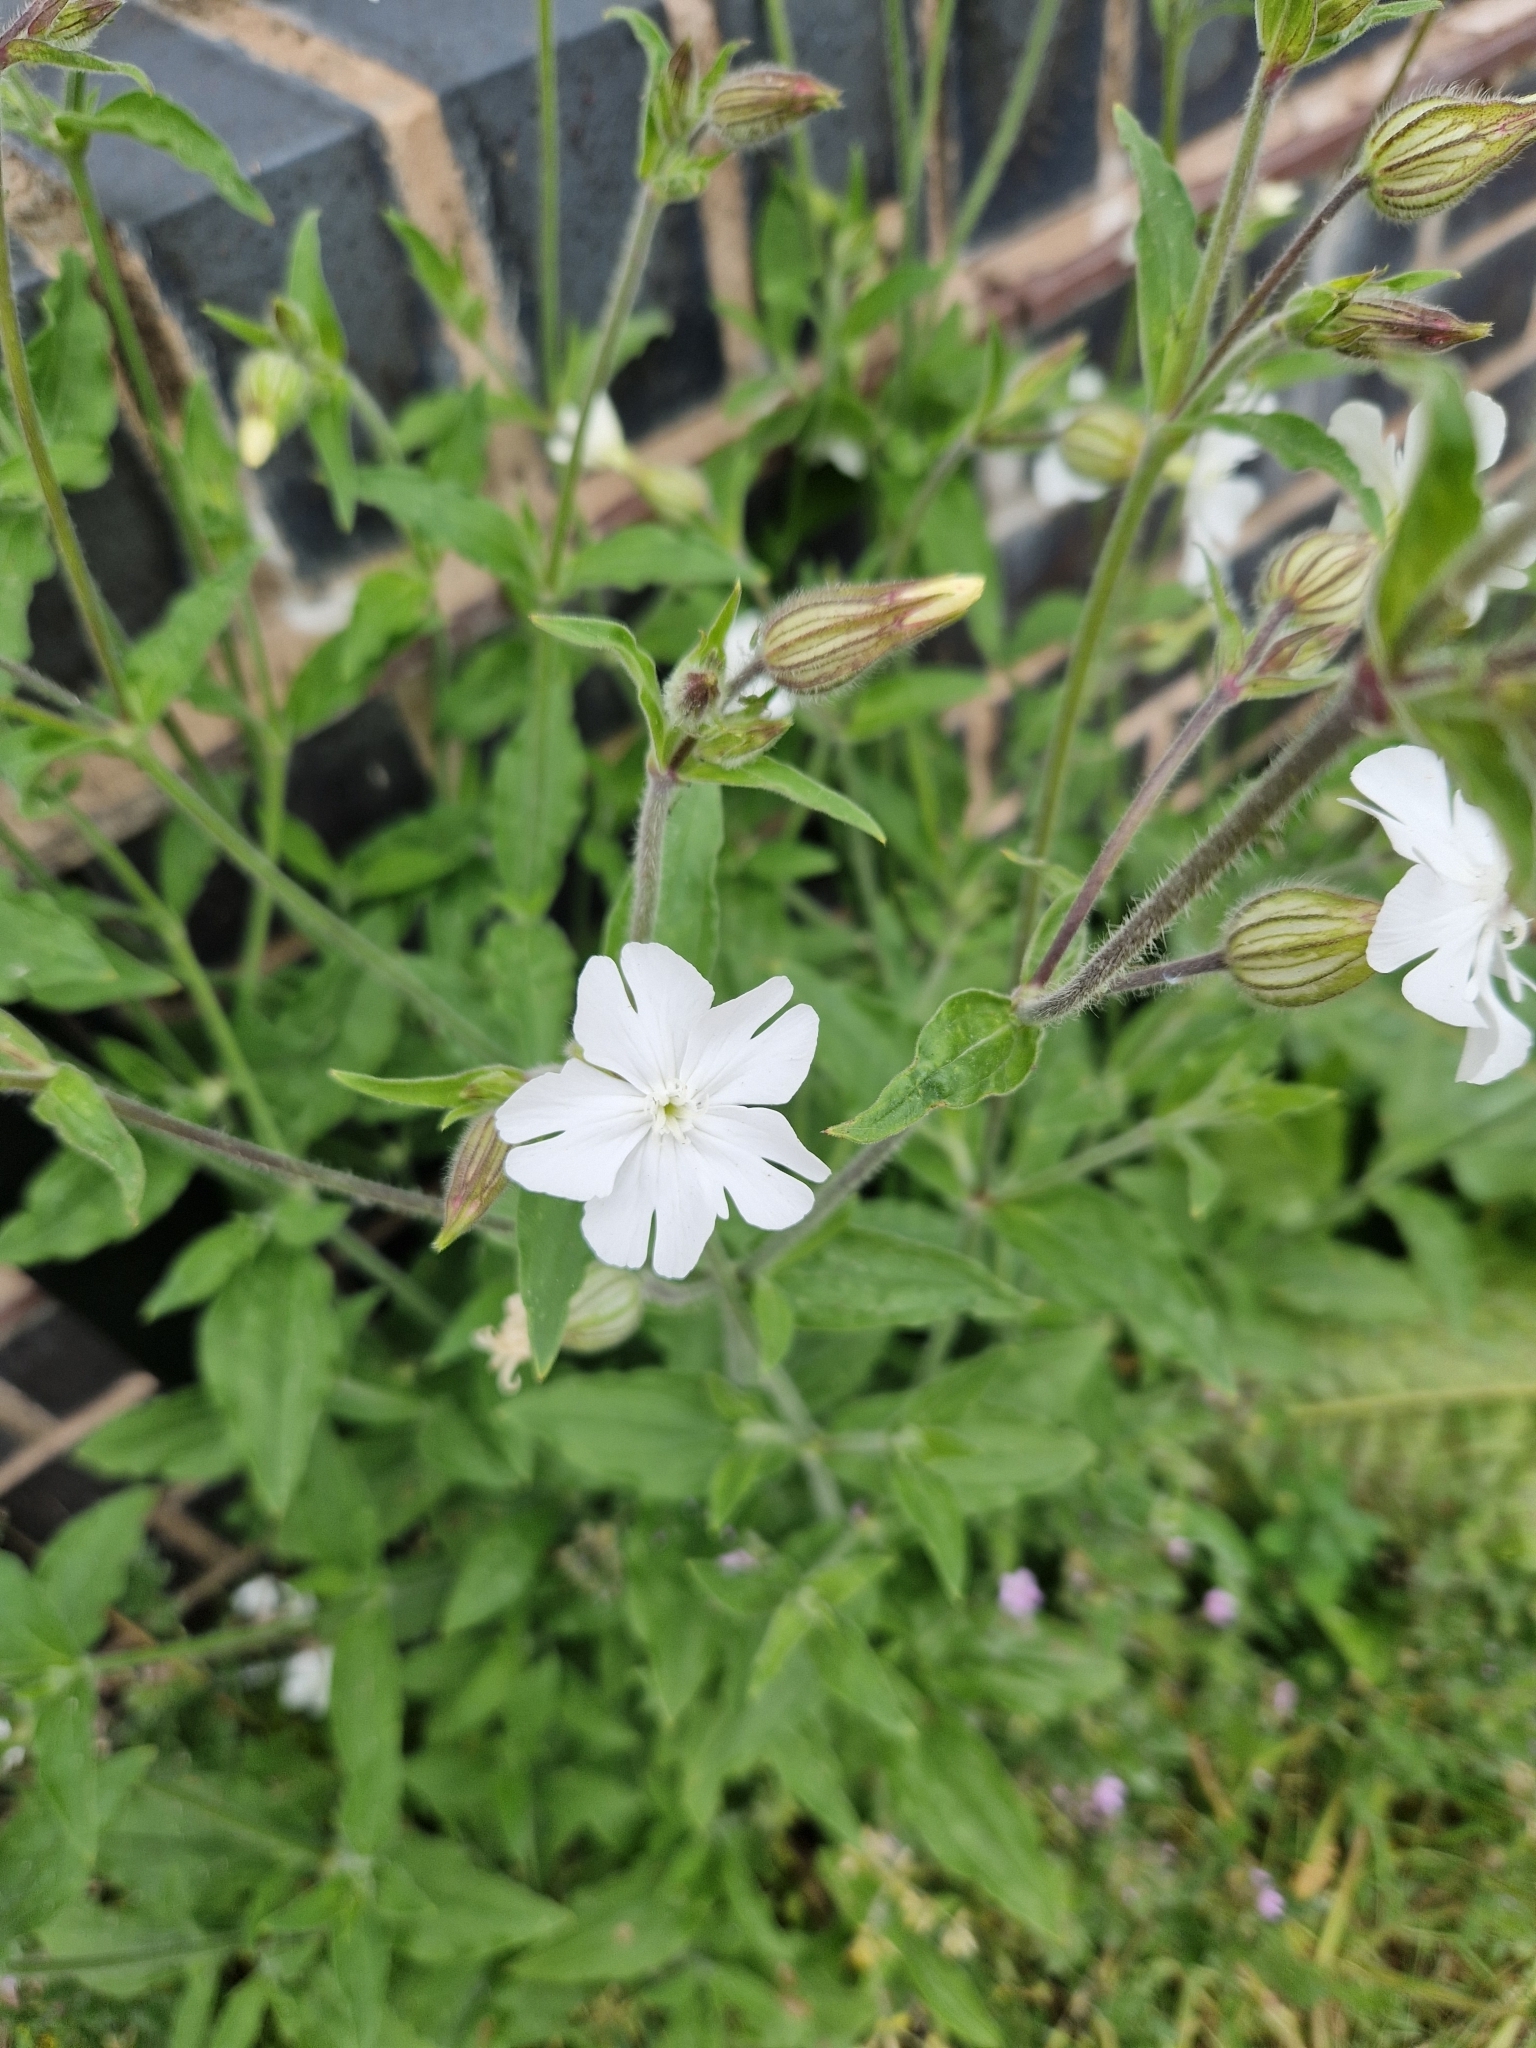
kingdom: Plantae
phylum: Tracheophyta
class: Magnoliopsida
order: Caryophyllales
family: Caryophyllaceae
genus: Silene
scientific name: Silene latifolia
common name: White campion
